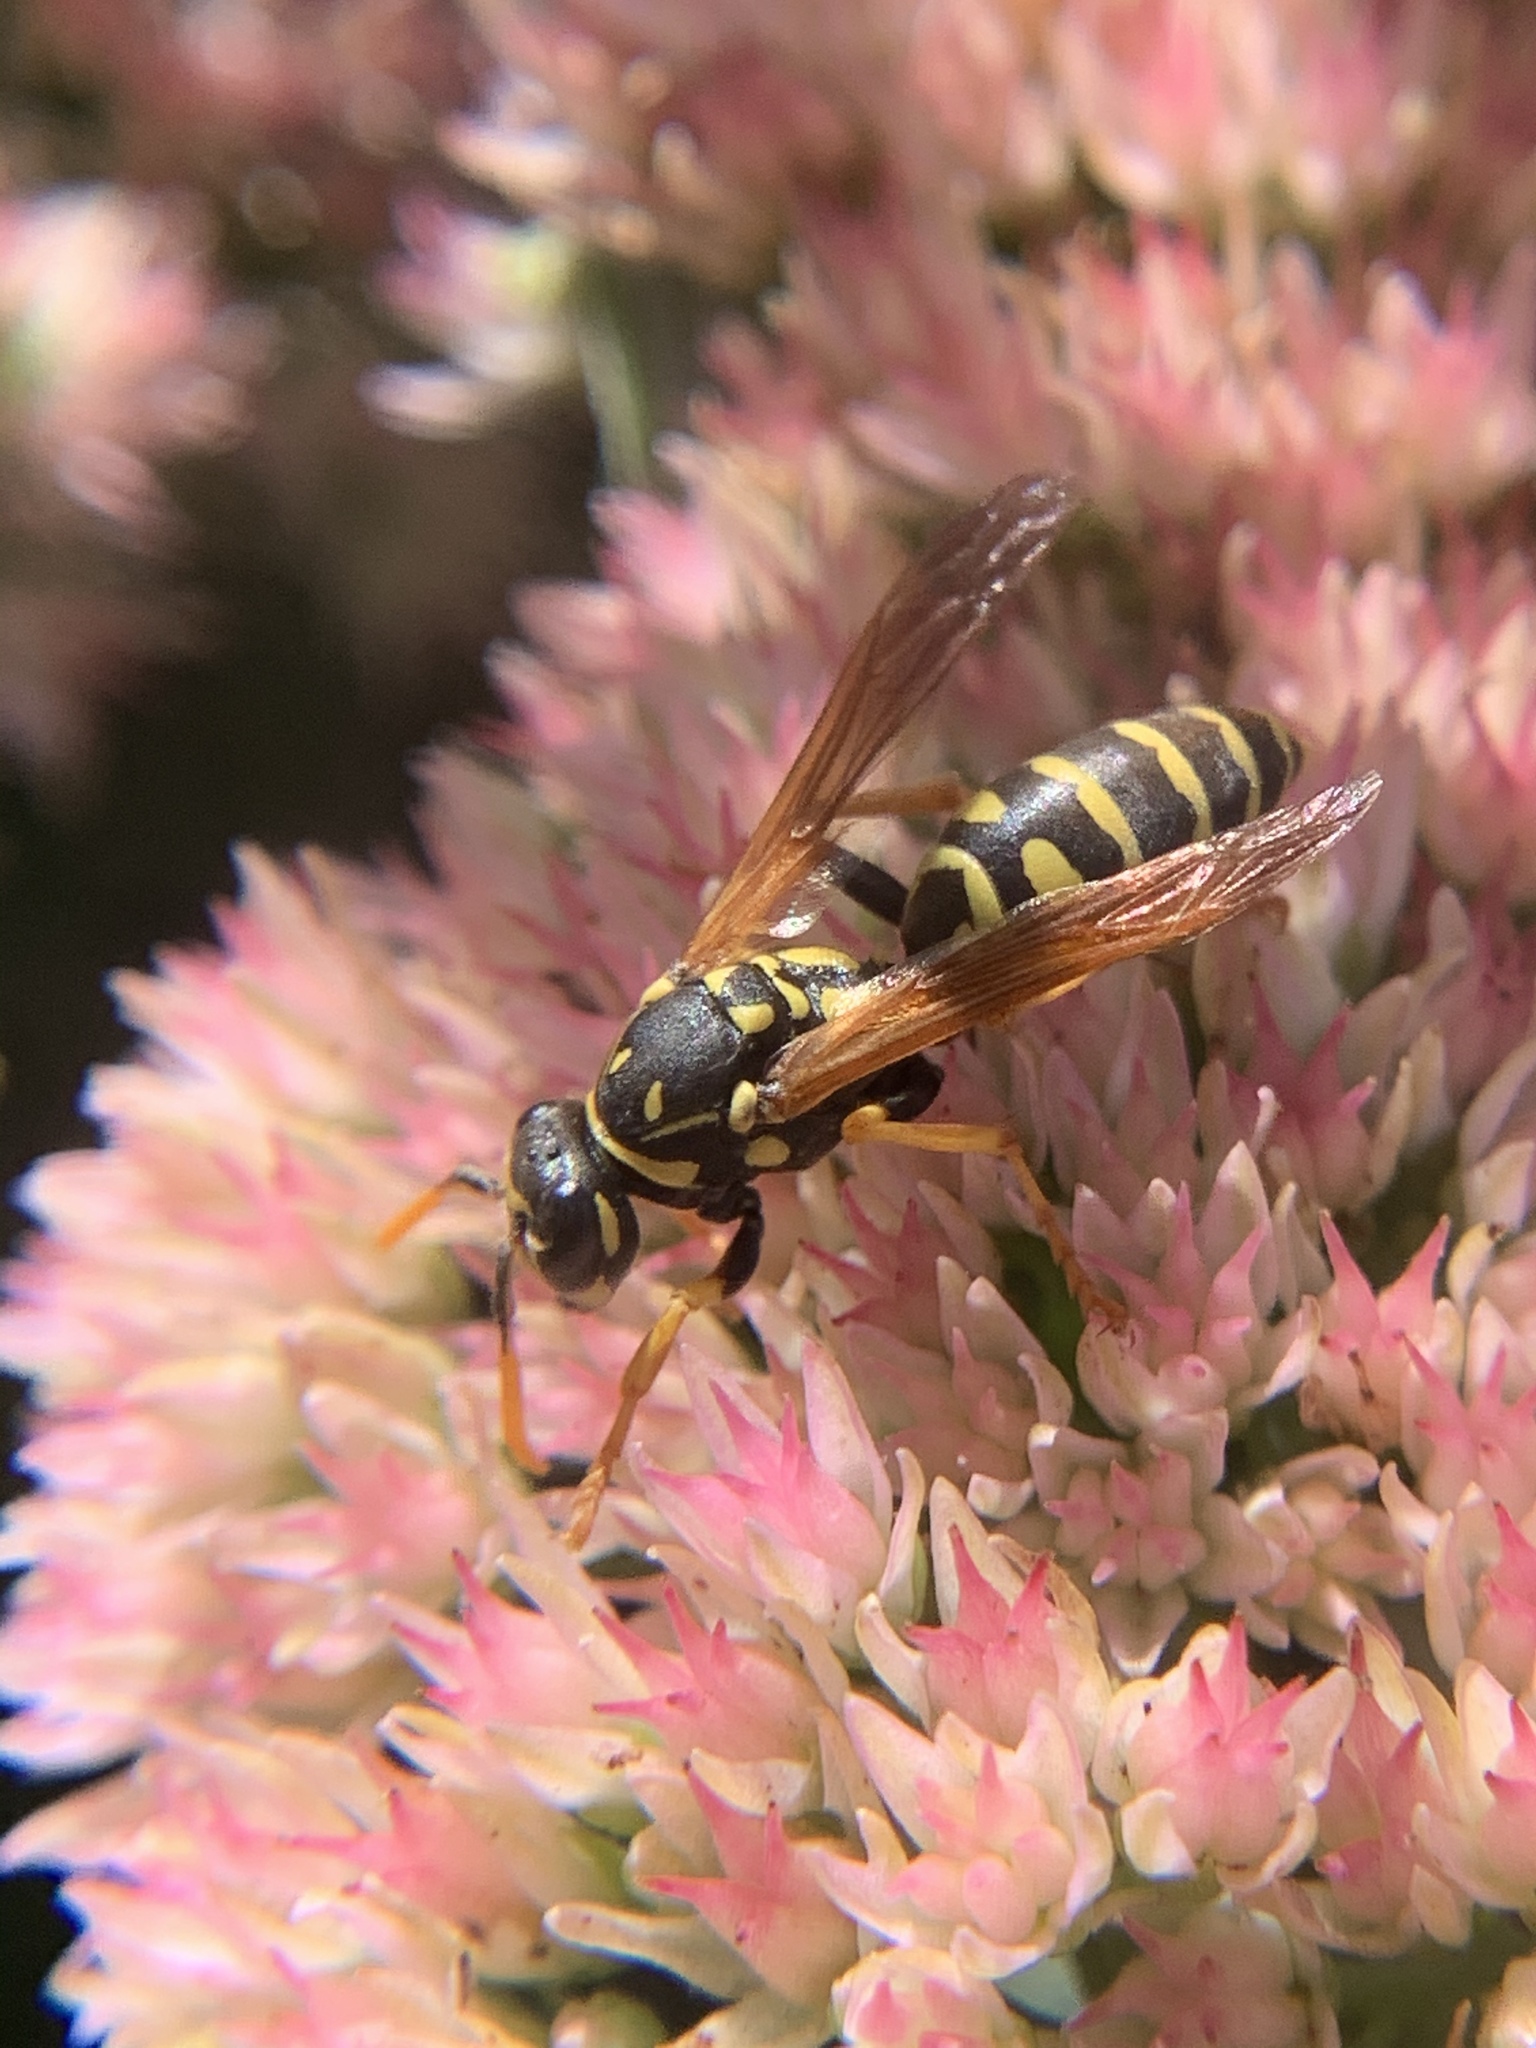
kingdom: Animalia
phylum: Arthropoda
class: Insecta
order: Hymenoptera
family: Eumenidae
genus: Polistes
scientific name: Polistes dominula
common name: Paper wasp
